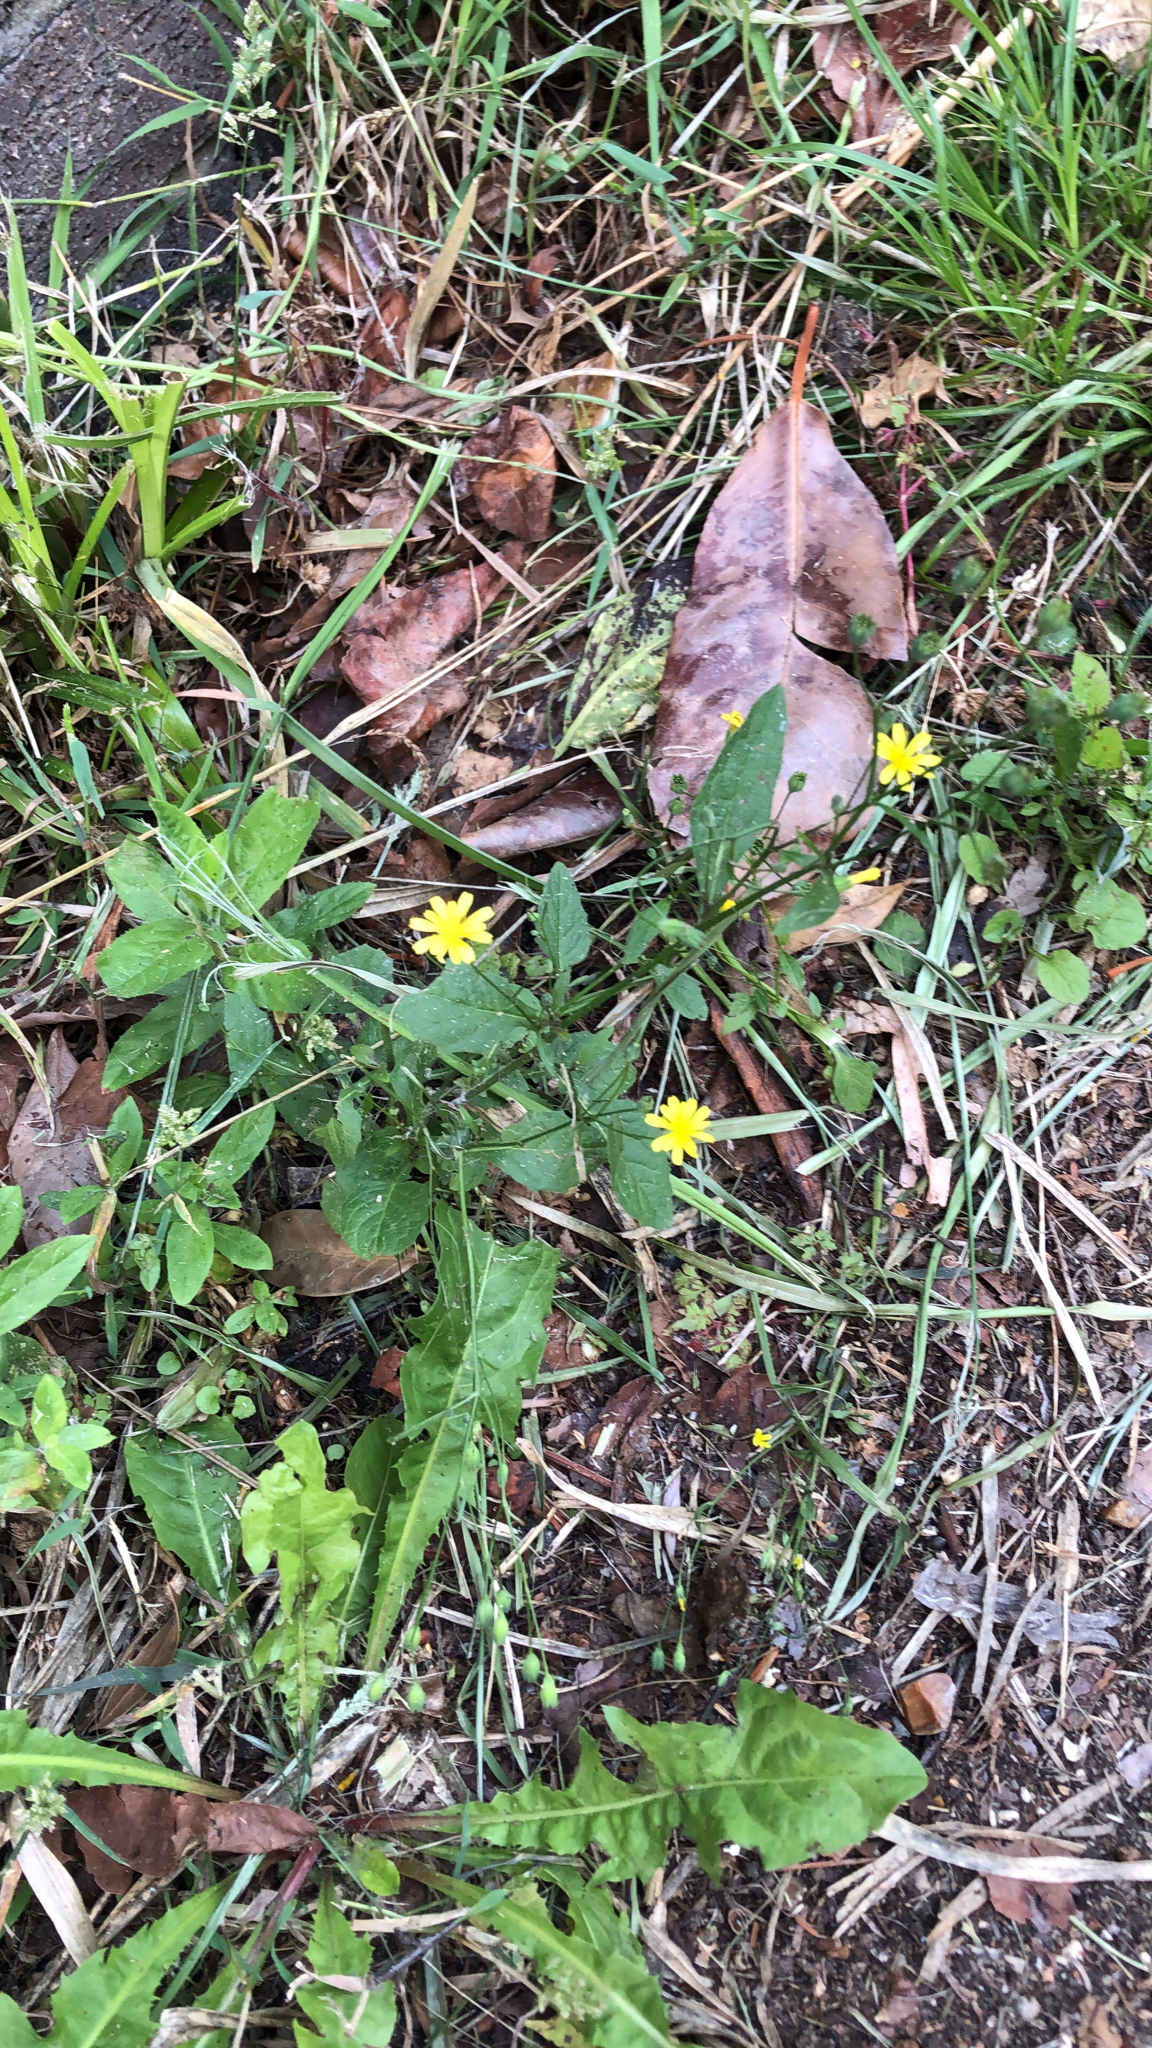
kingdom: Plantae
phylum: Tracheophyta
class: Magnoliopsida
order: Asterales
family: Asteraceae
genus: Lapsana
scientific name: Lapsana communis
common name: Nipplewort
